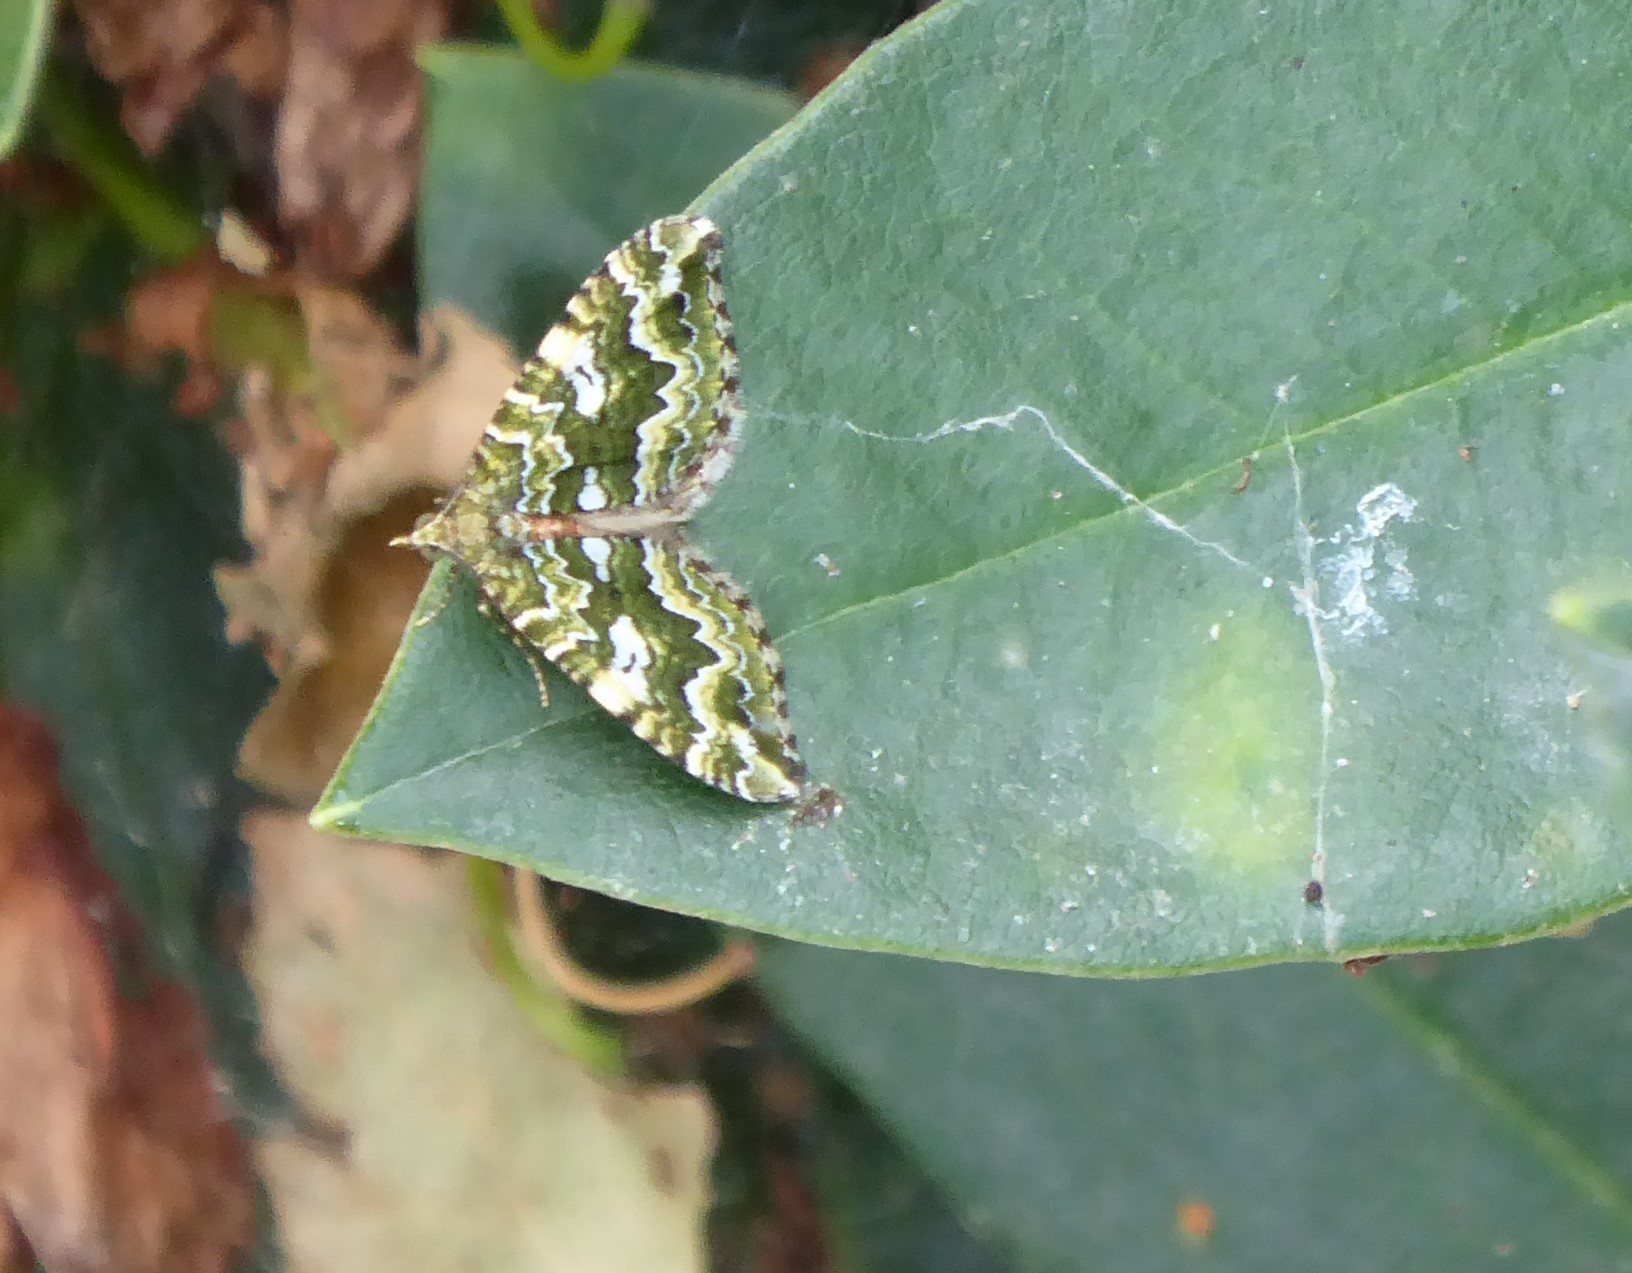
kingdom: Animalia
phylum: Arthropoda
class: Insecta
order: Lepidoptera
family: Geometridae
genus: Asaphodes
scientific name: Asaphodes beata
